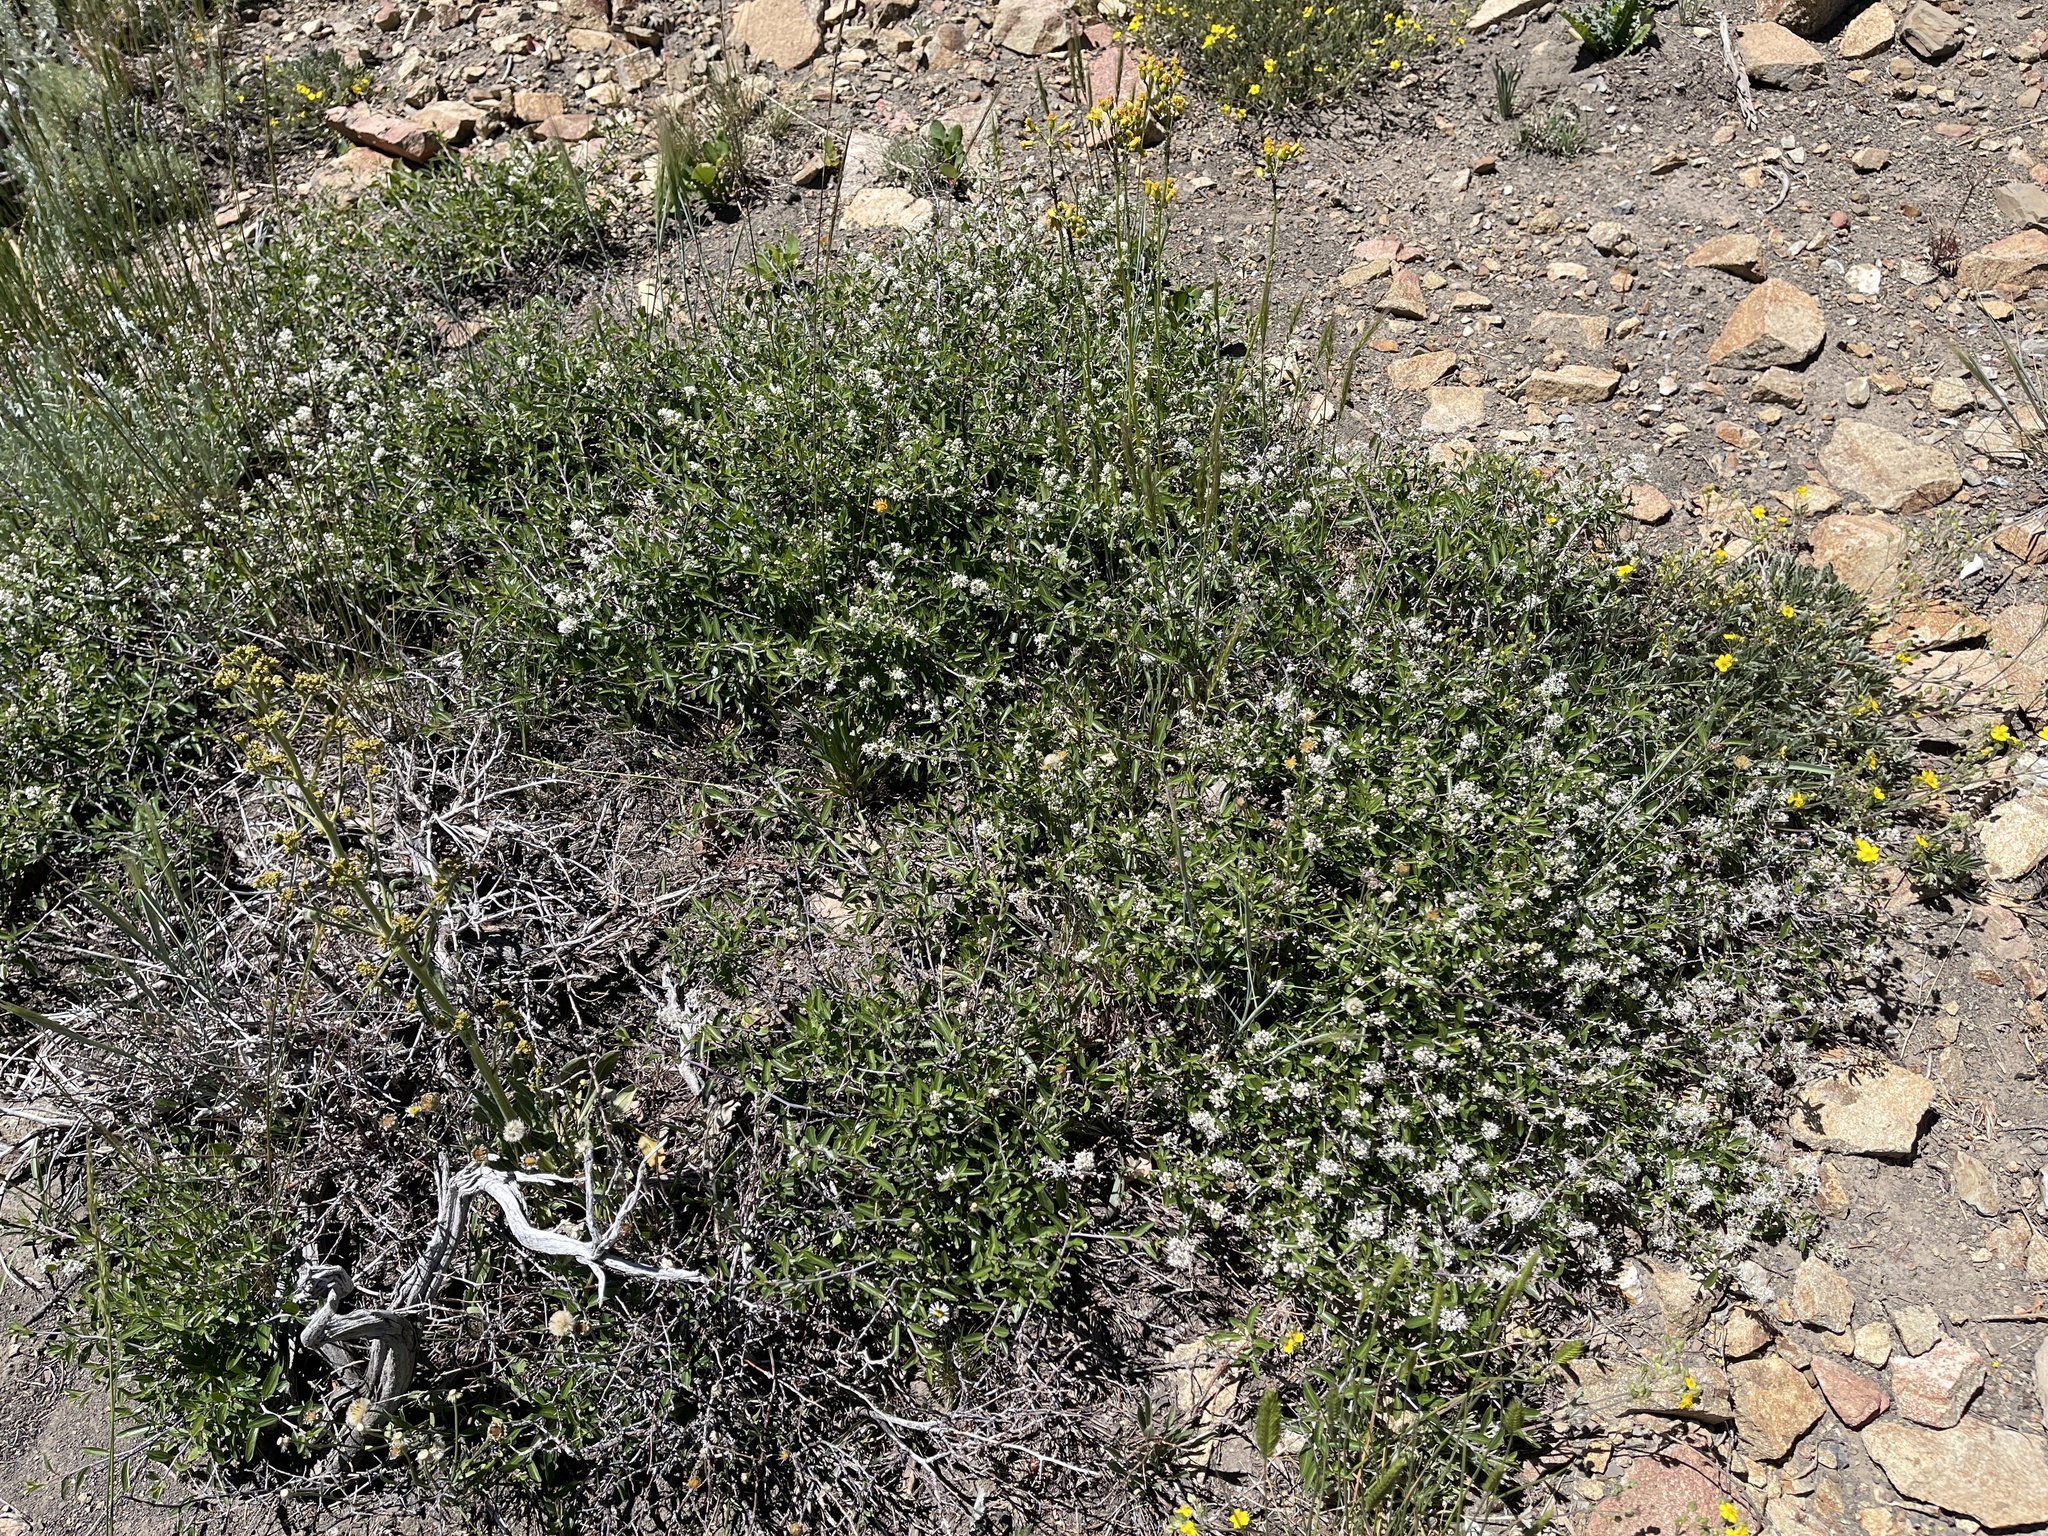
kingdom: Plantae
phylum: Tracheophyta
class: Magnoliopsida
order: Rosales
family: Rhamnaceae
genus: Ceanothus
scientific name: Ceanothus fendleri
